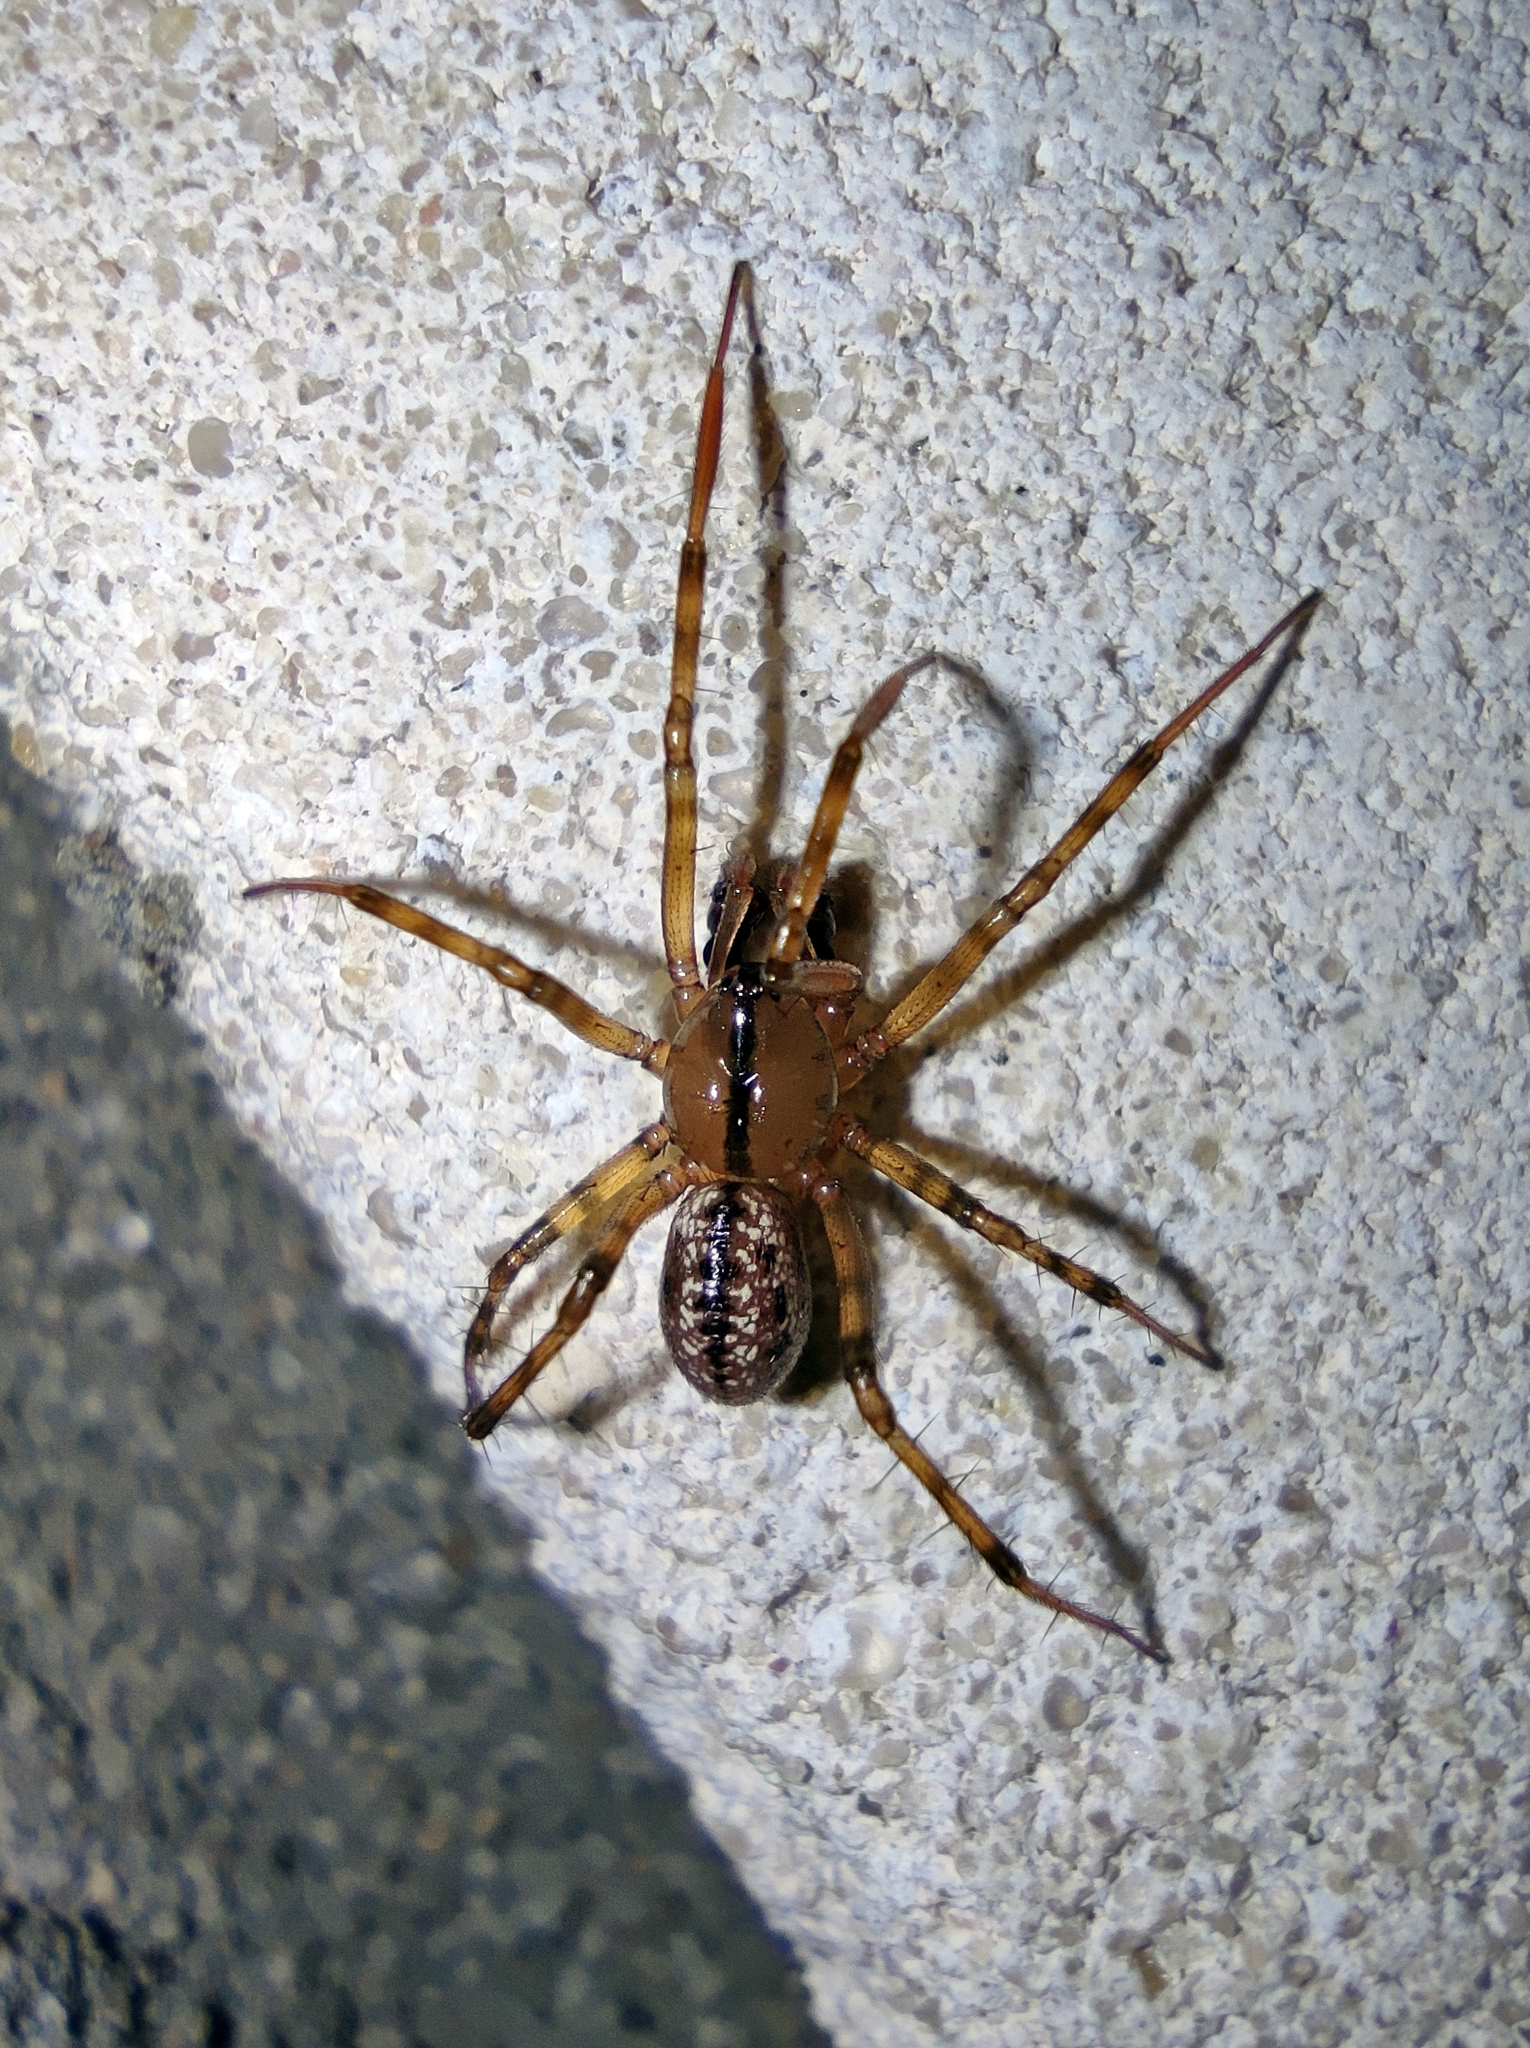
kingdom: Animalia
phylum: Arthropoda
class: Arachnida
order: Araneae
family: Linyphiidae
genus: Stemonyphantes
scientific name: Stemonyphantes lineatus
